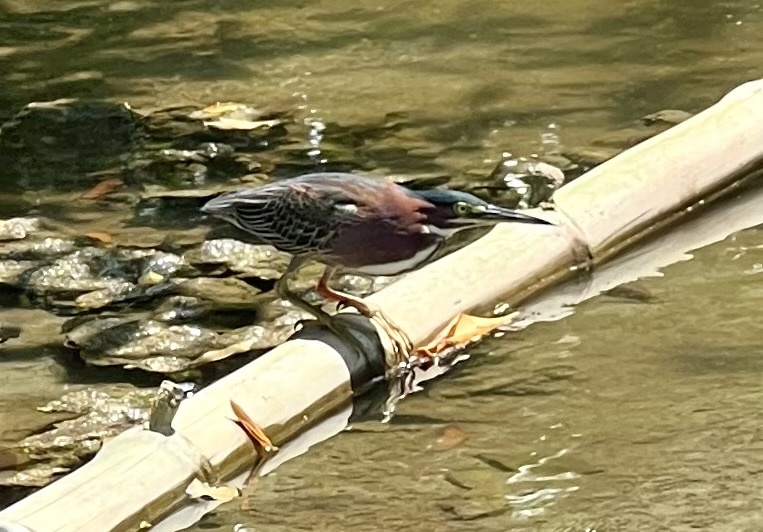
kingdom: Animalia
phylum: Chordata
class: Aves
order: Pelecaniformes
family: Ardeidae
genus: Butorides
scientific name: Butorides virescens
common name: Green heron
